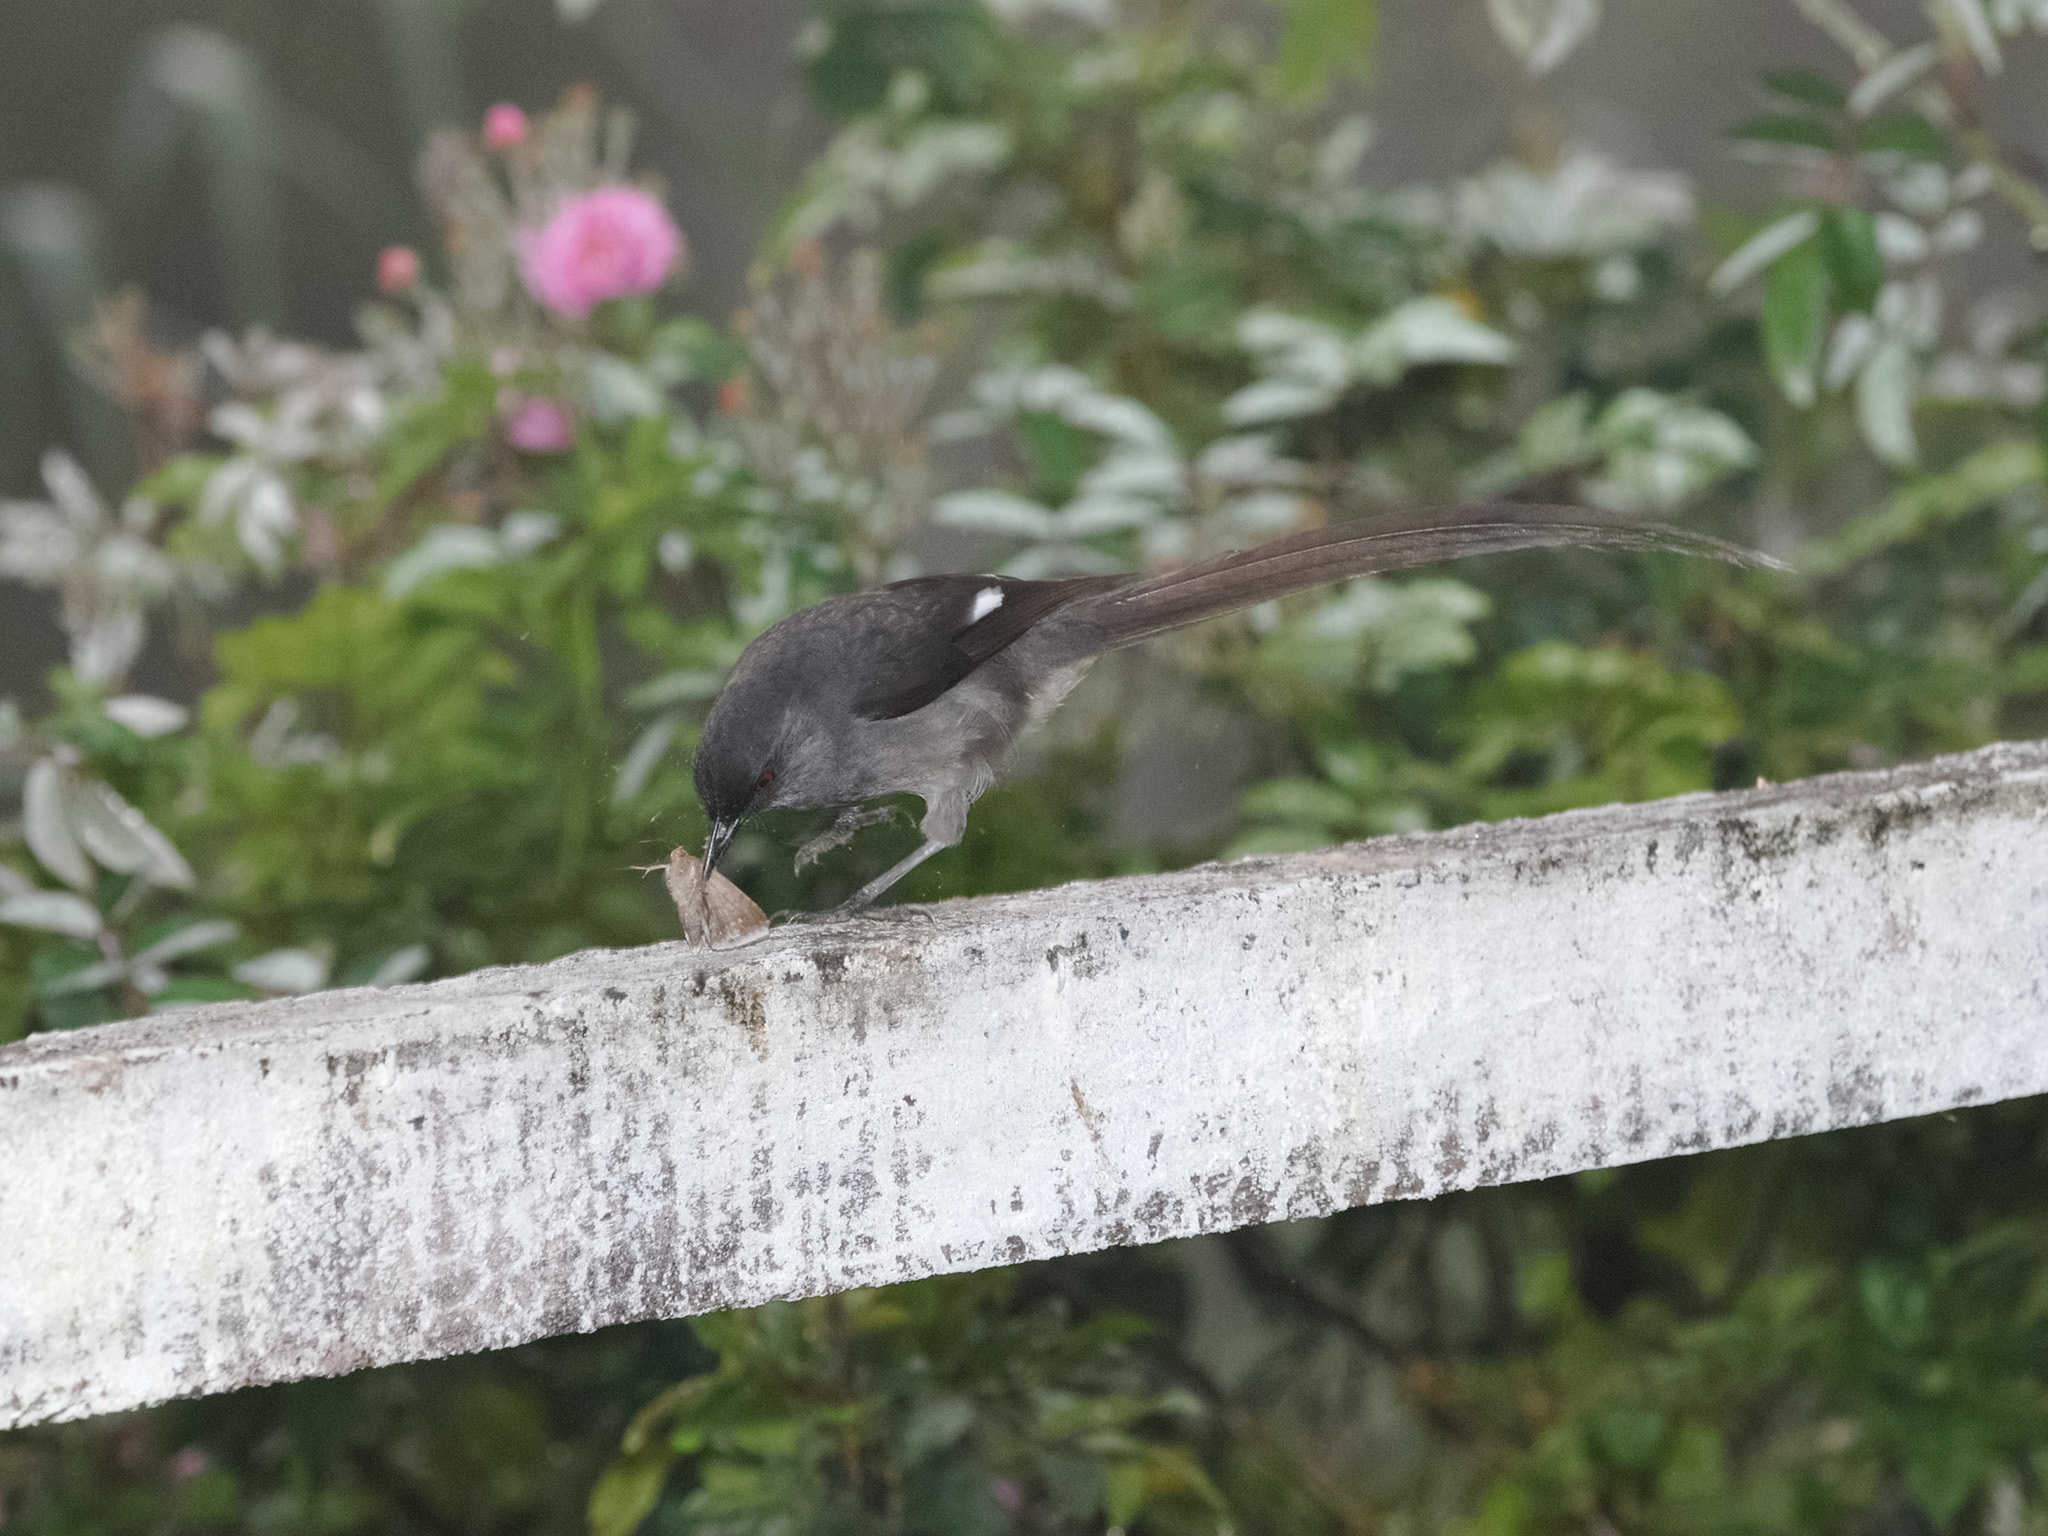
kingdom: Animalia
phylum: Chordata
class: Aves
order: Passeriformes
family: Leiothrichidae
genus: Heterophasia
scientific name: Heterophasia picaoides
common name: Long-tailed sibia
